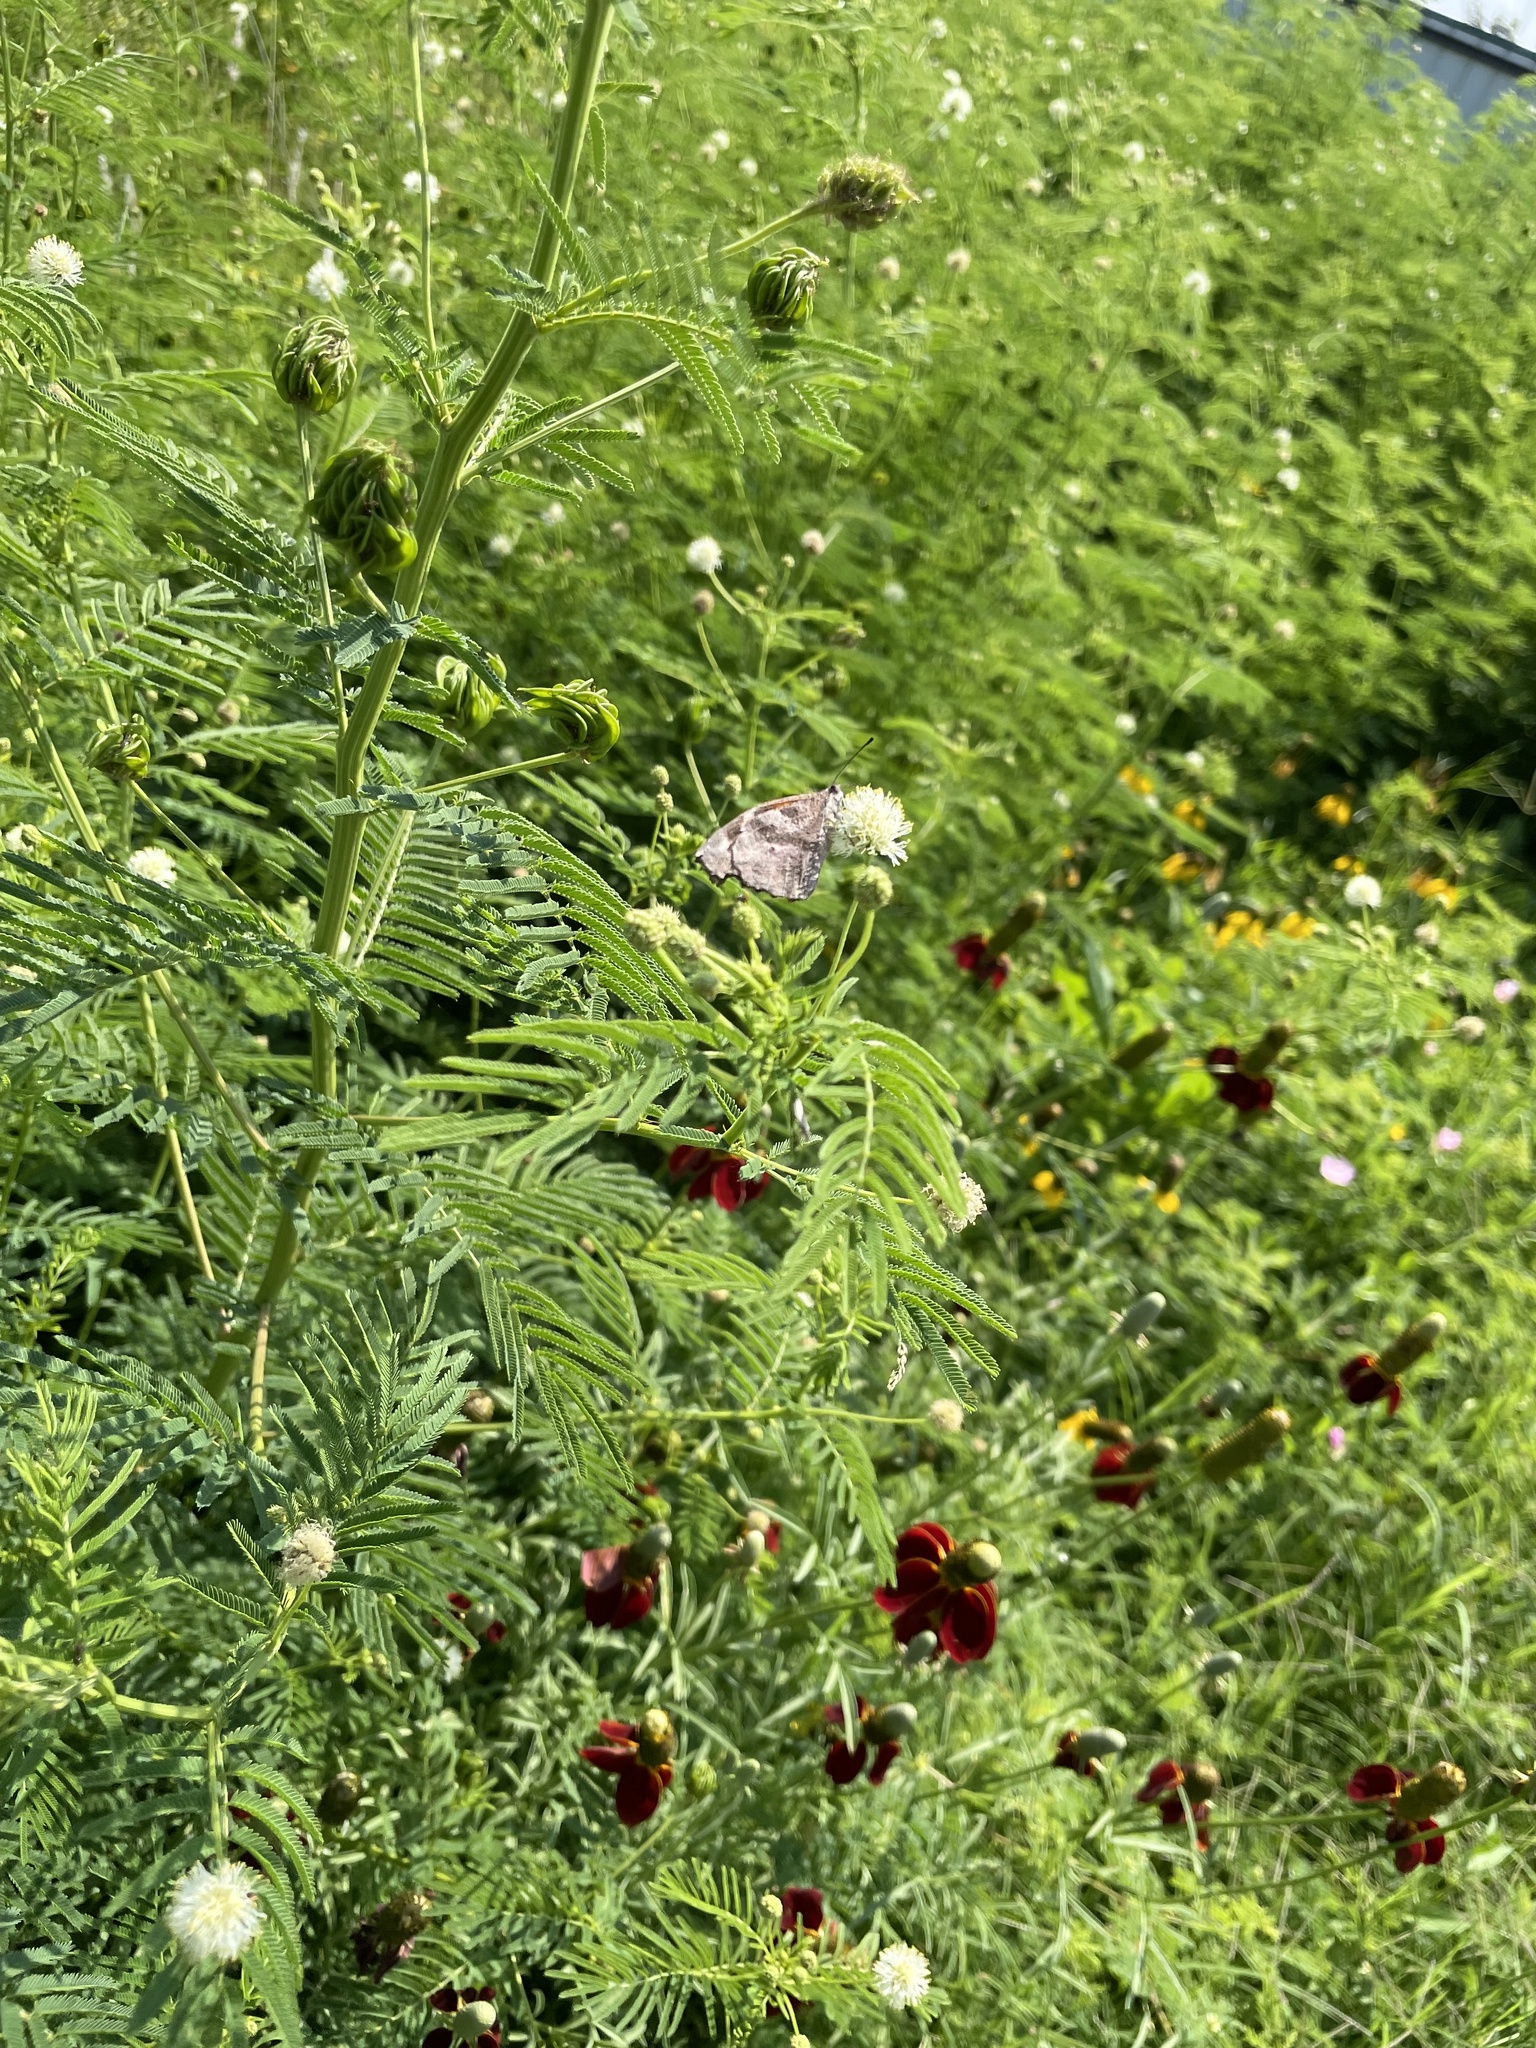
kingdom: Animalia
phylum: Arthropoda
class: Insecta
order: Lepidoptera
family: Nymphalidae
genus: Libytheana
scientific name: Libytheana carinenta
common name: American snout
